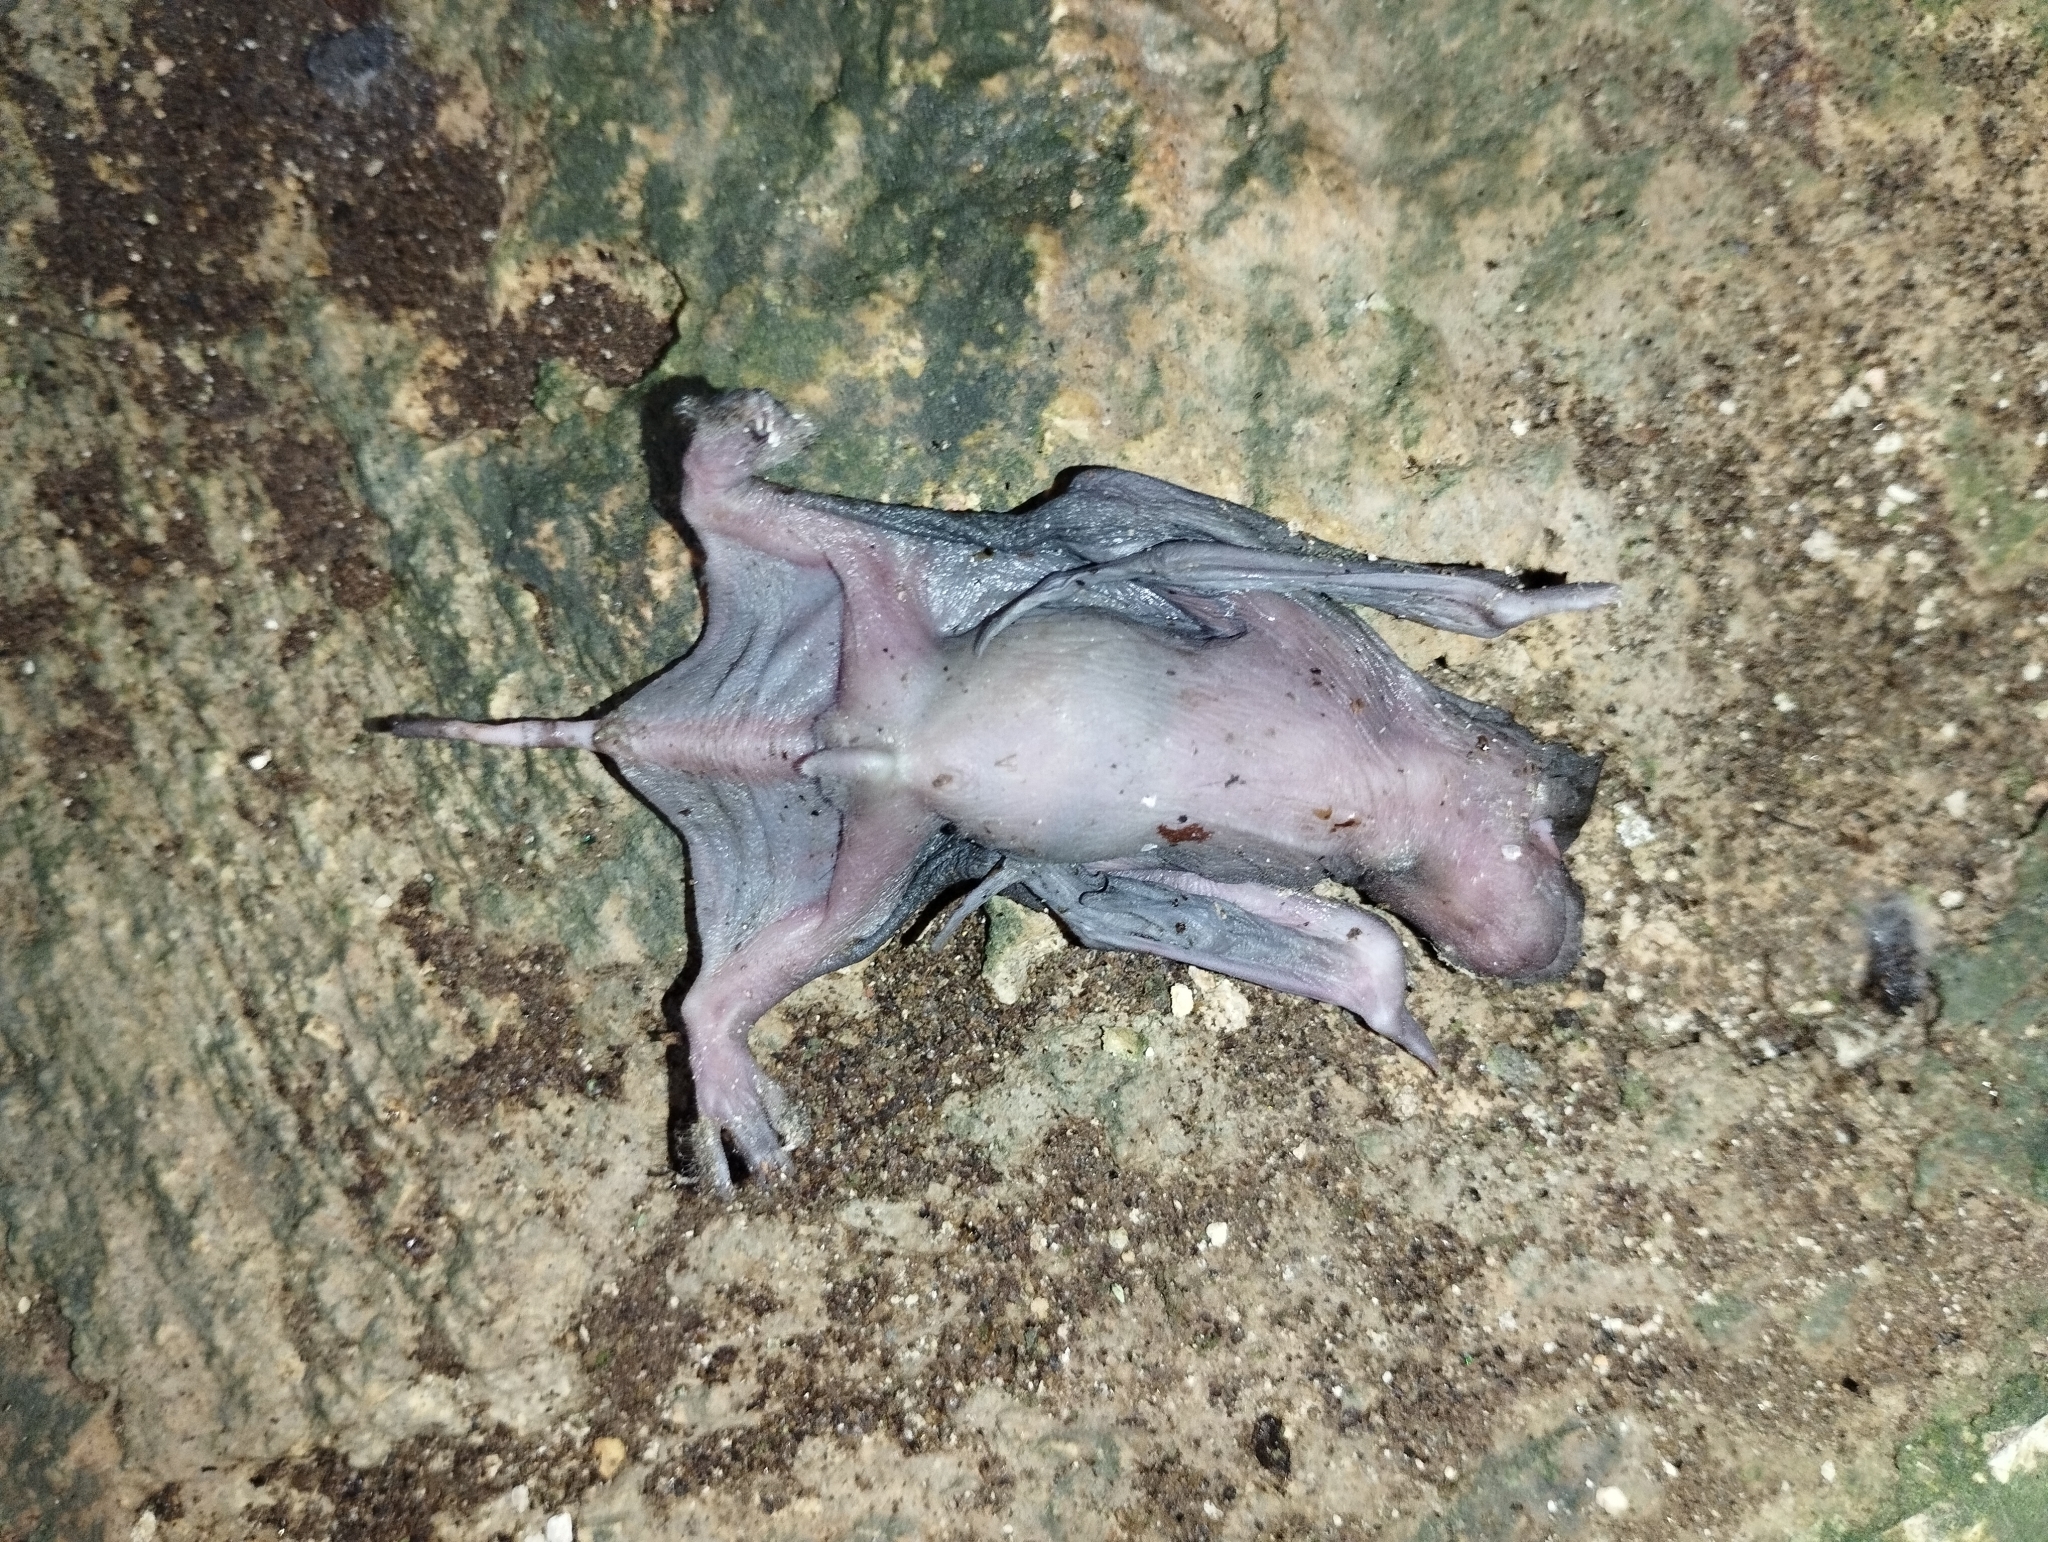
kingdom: Animalia
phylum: Chordata
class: Mammalia
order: Chiroptera
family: Molossidae
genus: Nyctinomops
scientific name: Nyctinomops laticaudatus
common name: Broad-eared free-tailed bat
